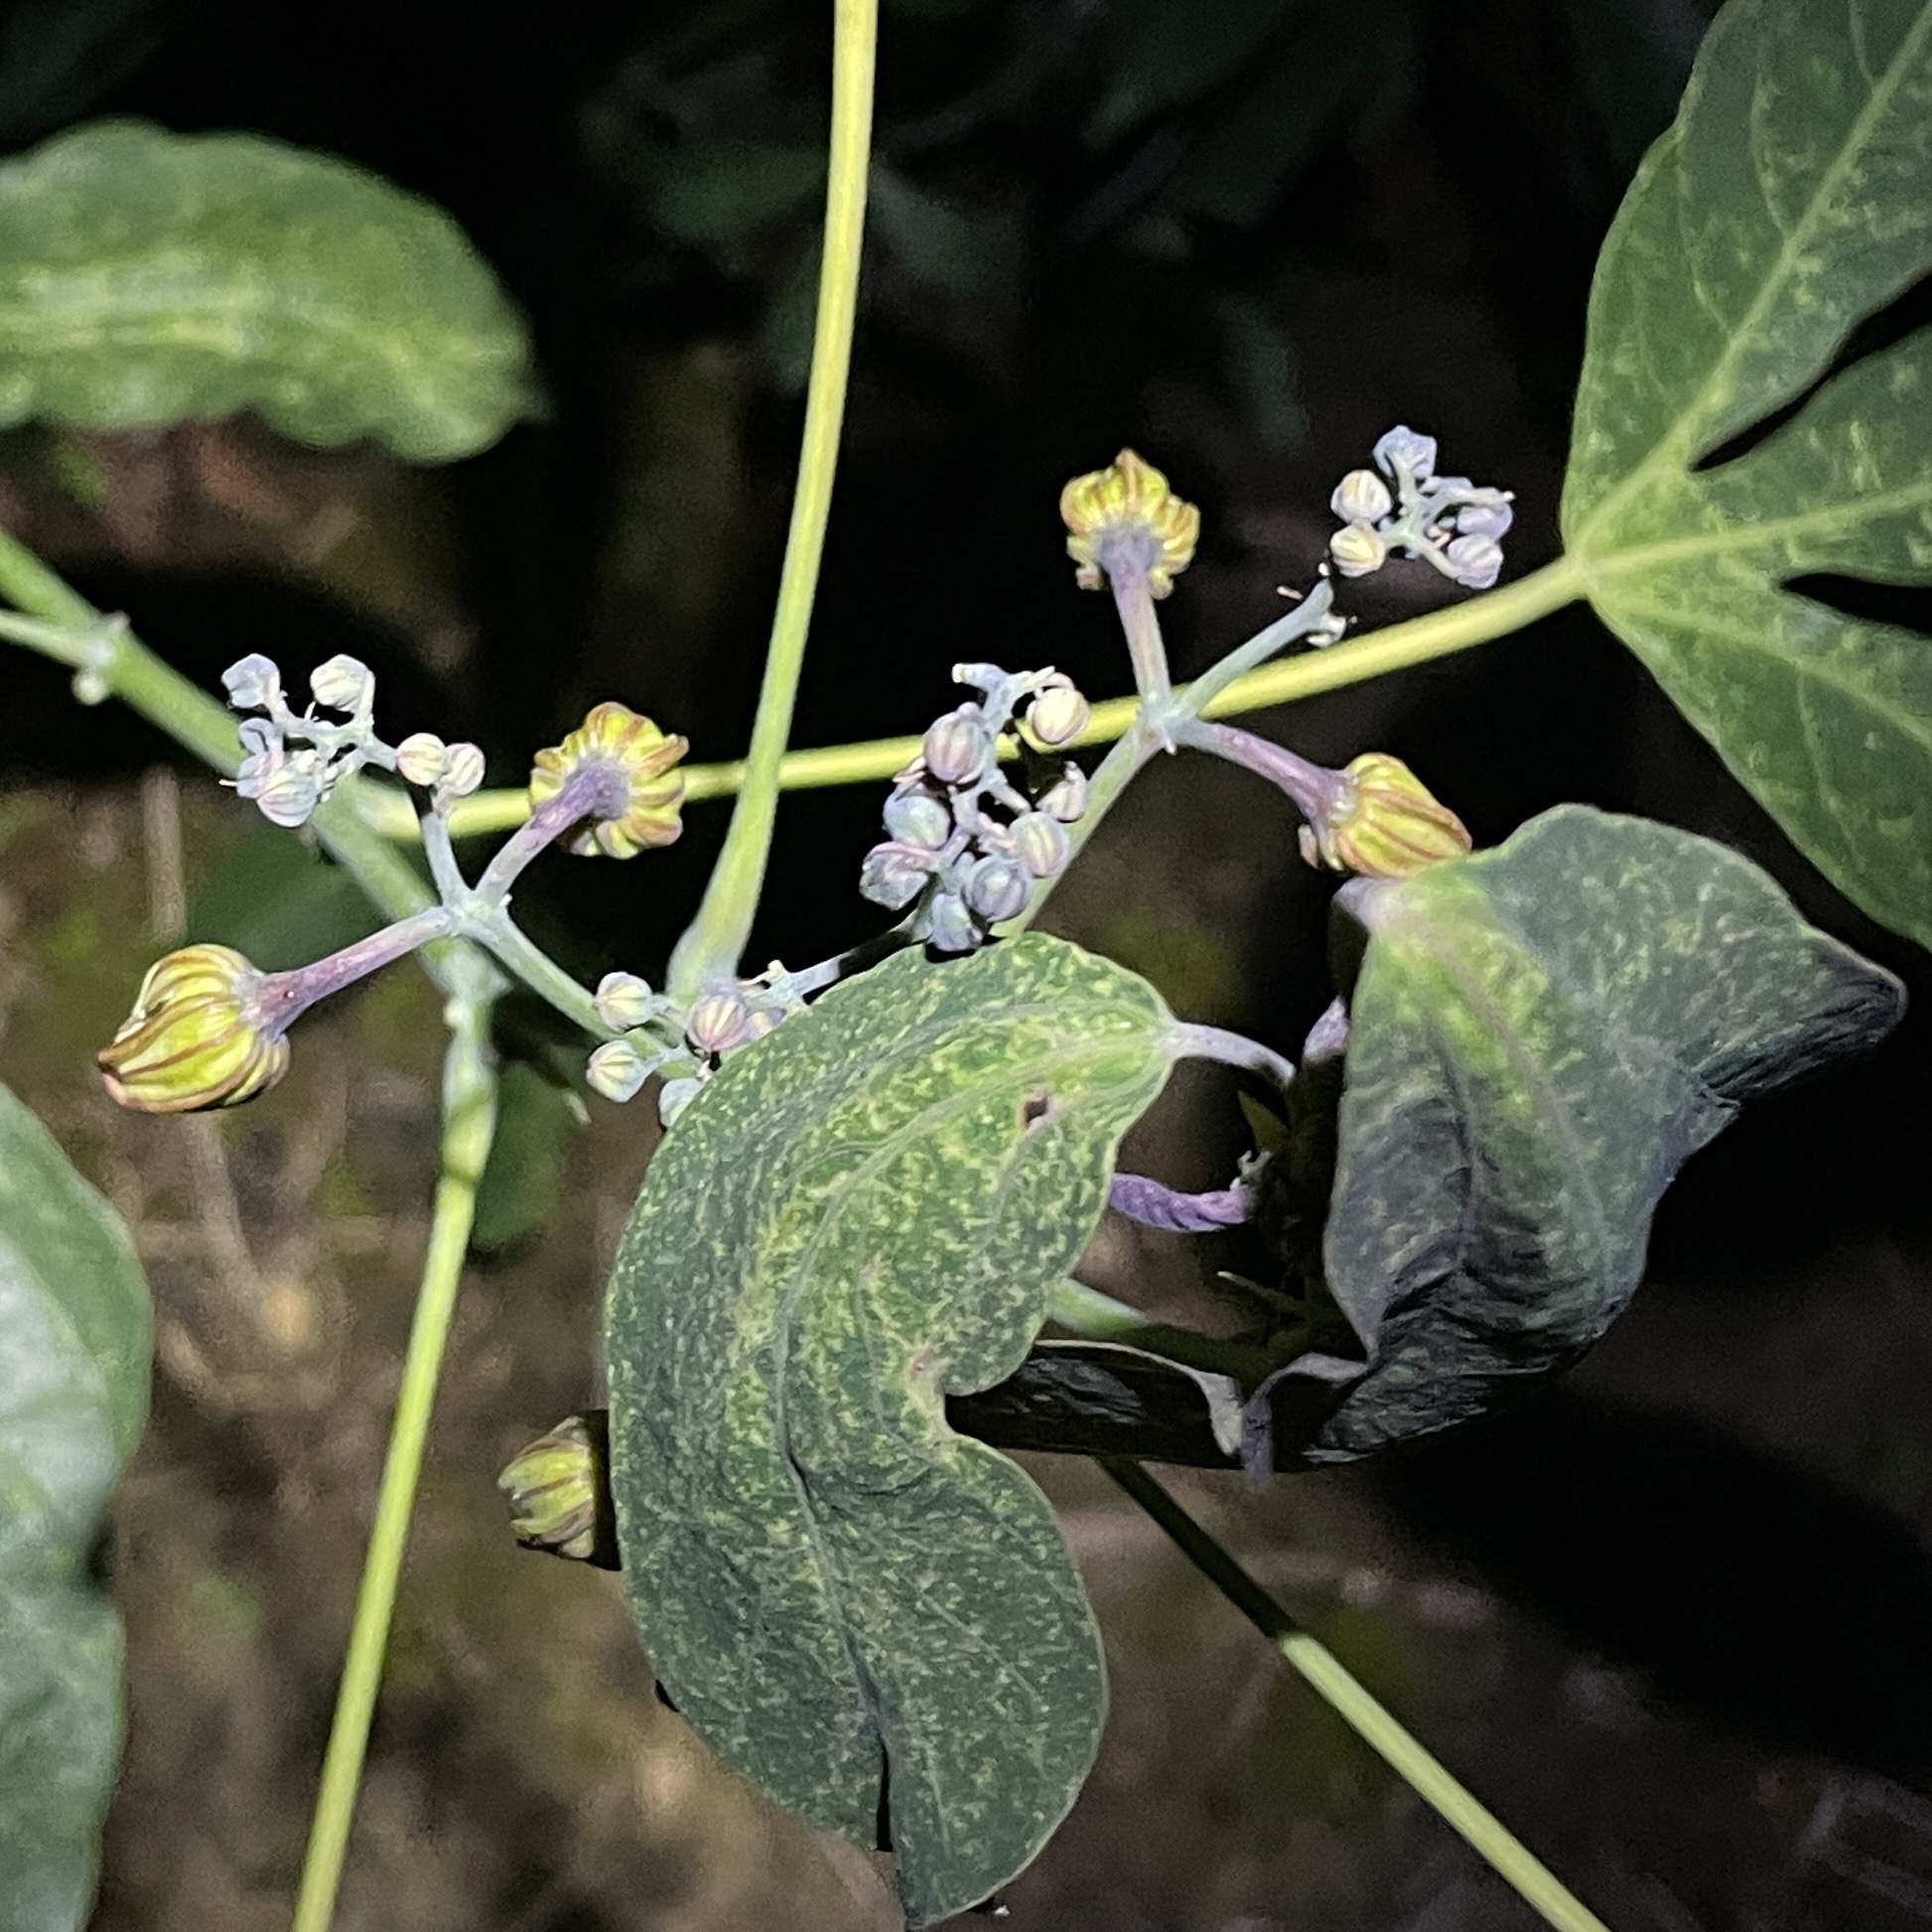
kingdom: Plantae
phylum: Tracheophyta
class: Magnoliopsida
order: Malpighiales
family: Euphorbiaceae
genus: Manihot
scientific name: Manihot esculenta
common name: Cassava
